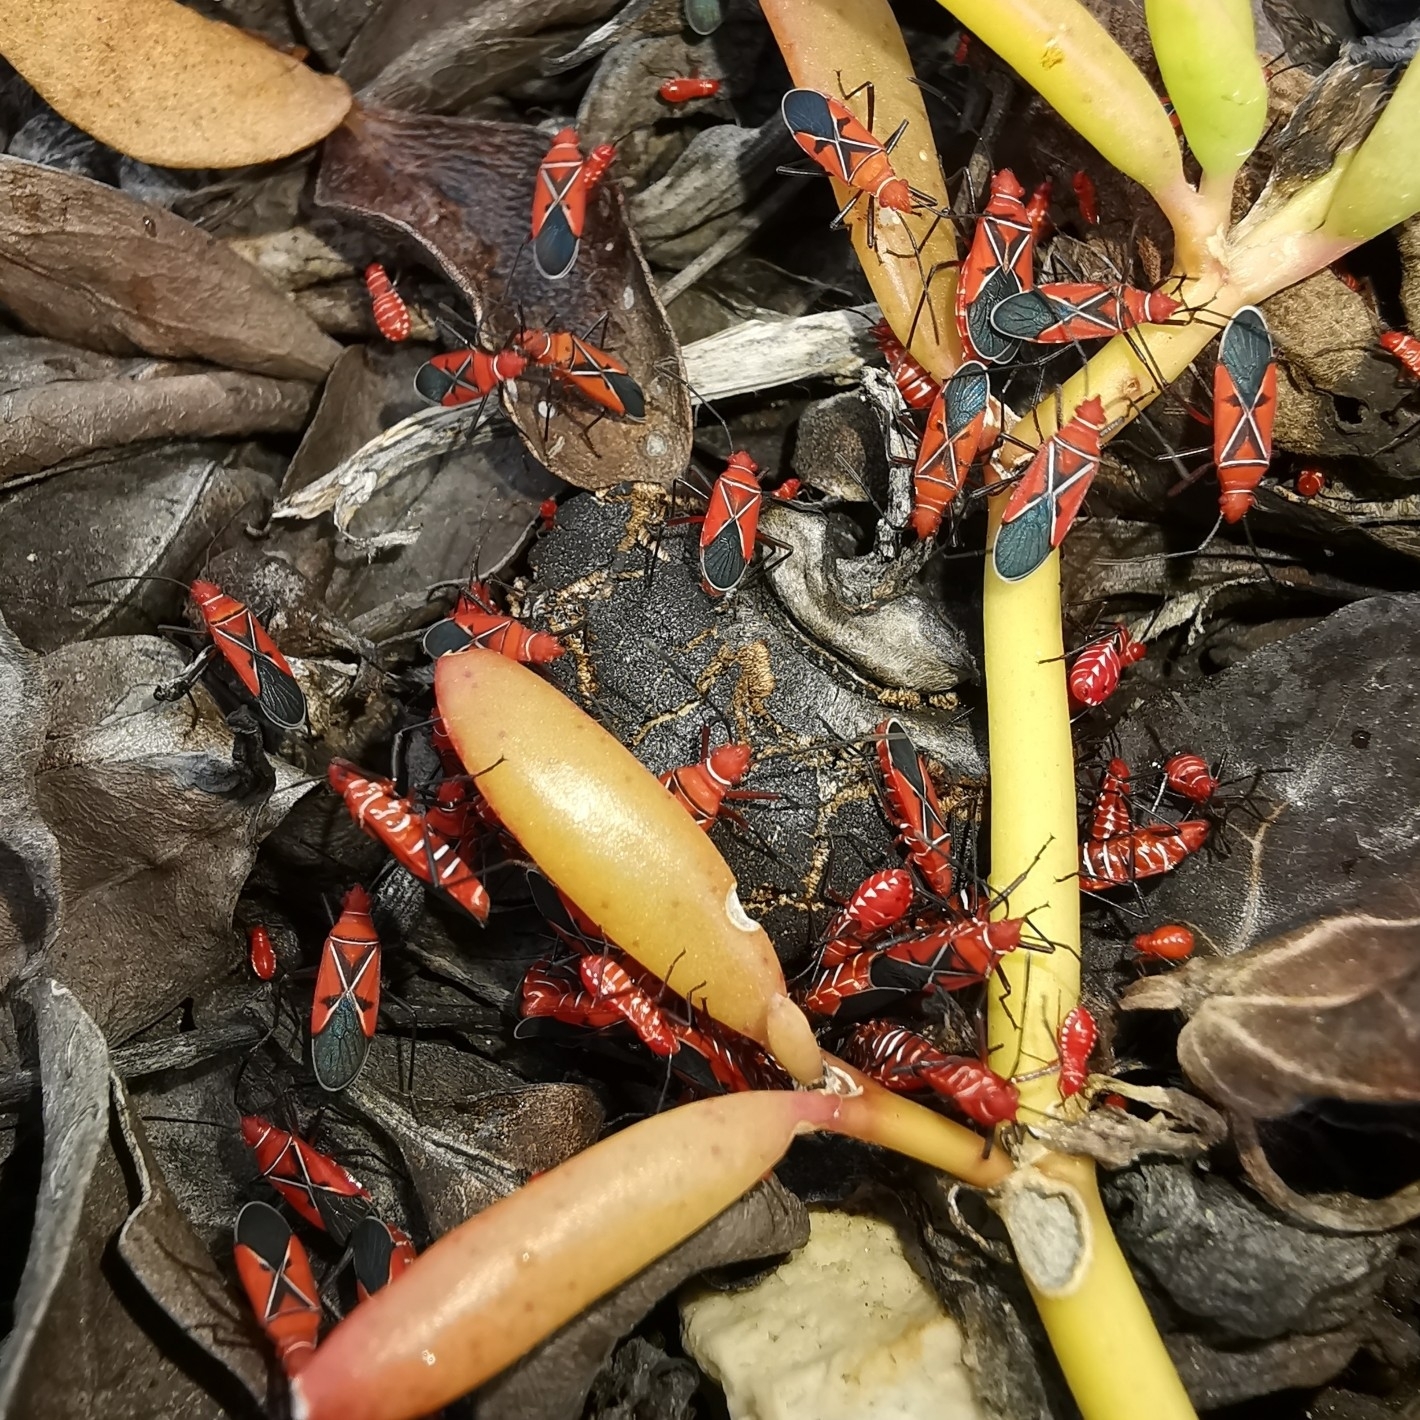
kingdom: Animalia
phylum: Arthropoda
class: Insecta
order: Hemiptera
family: Pyrrhocoridae
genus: Dysdercus
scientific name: Dysdercus andreae
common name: St. andrew's cotton stainer
